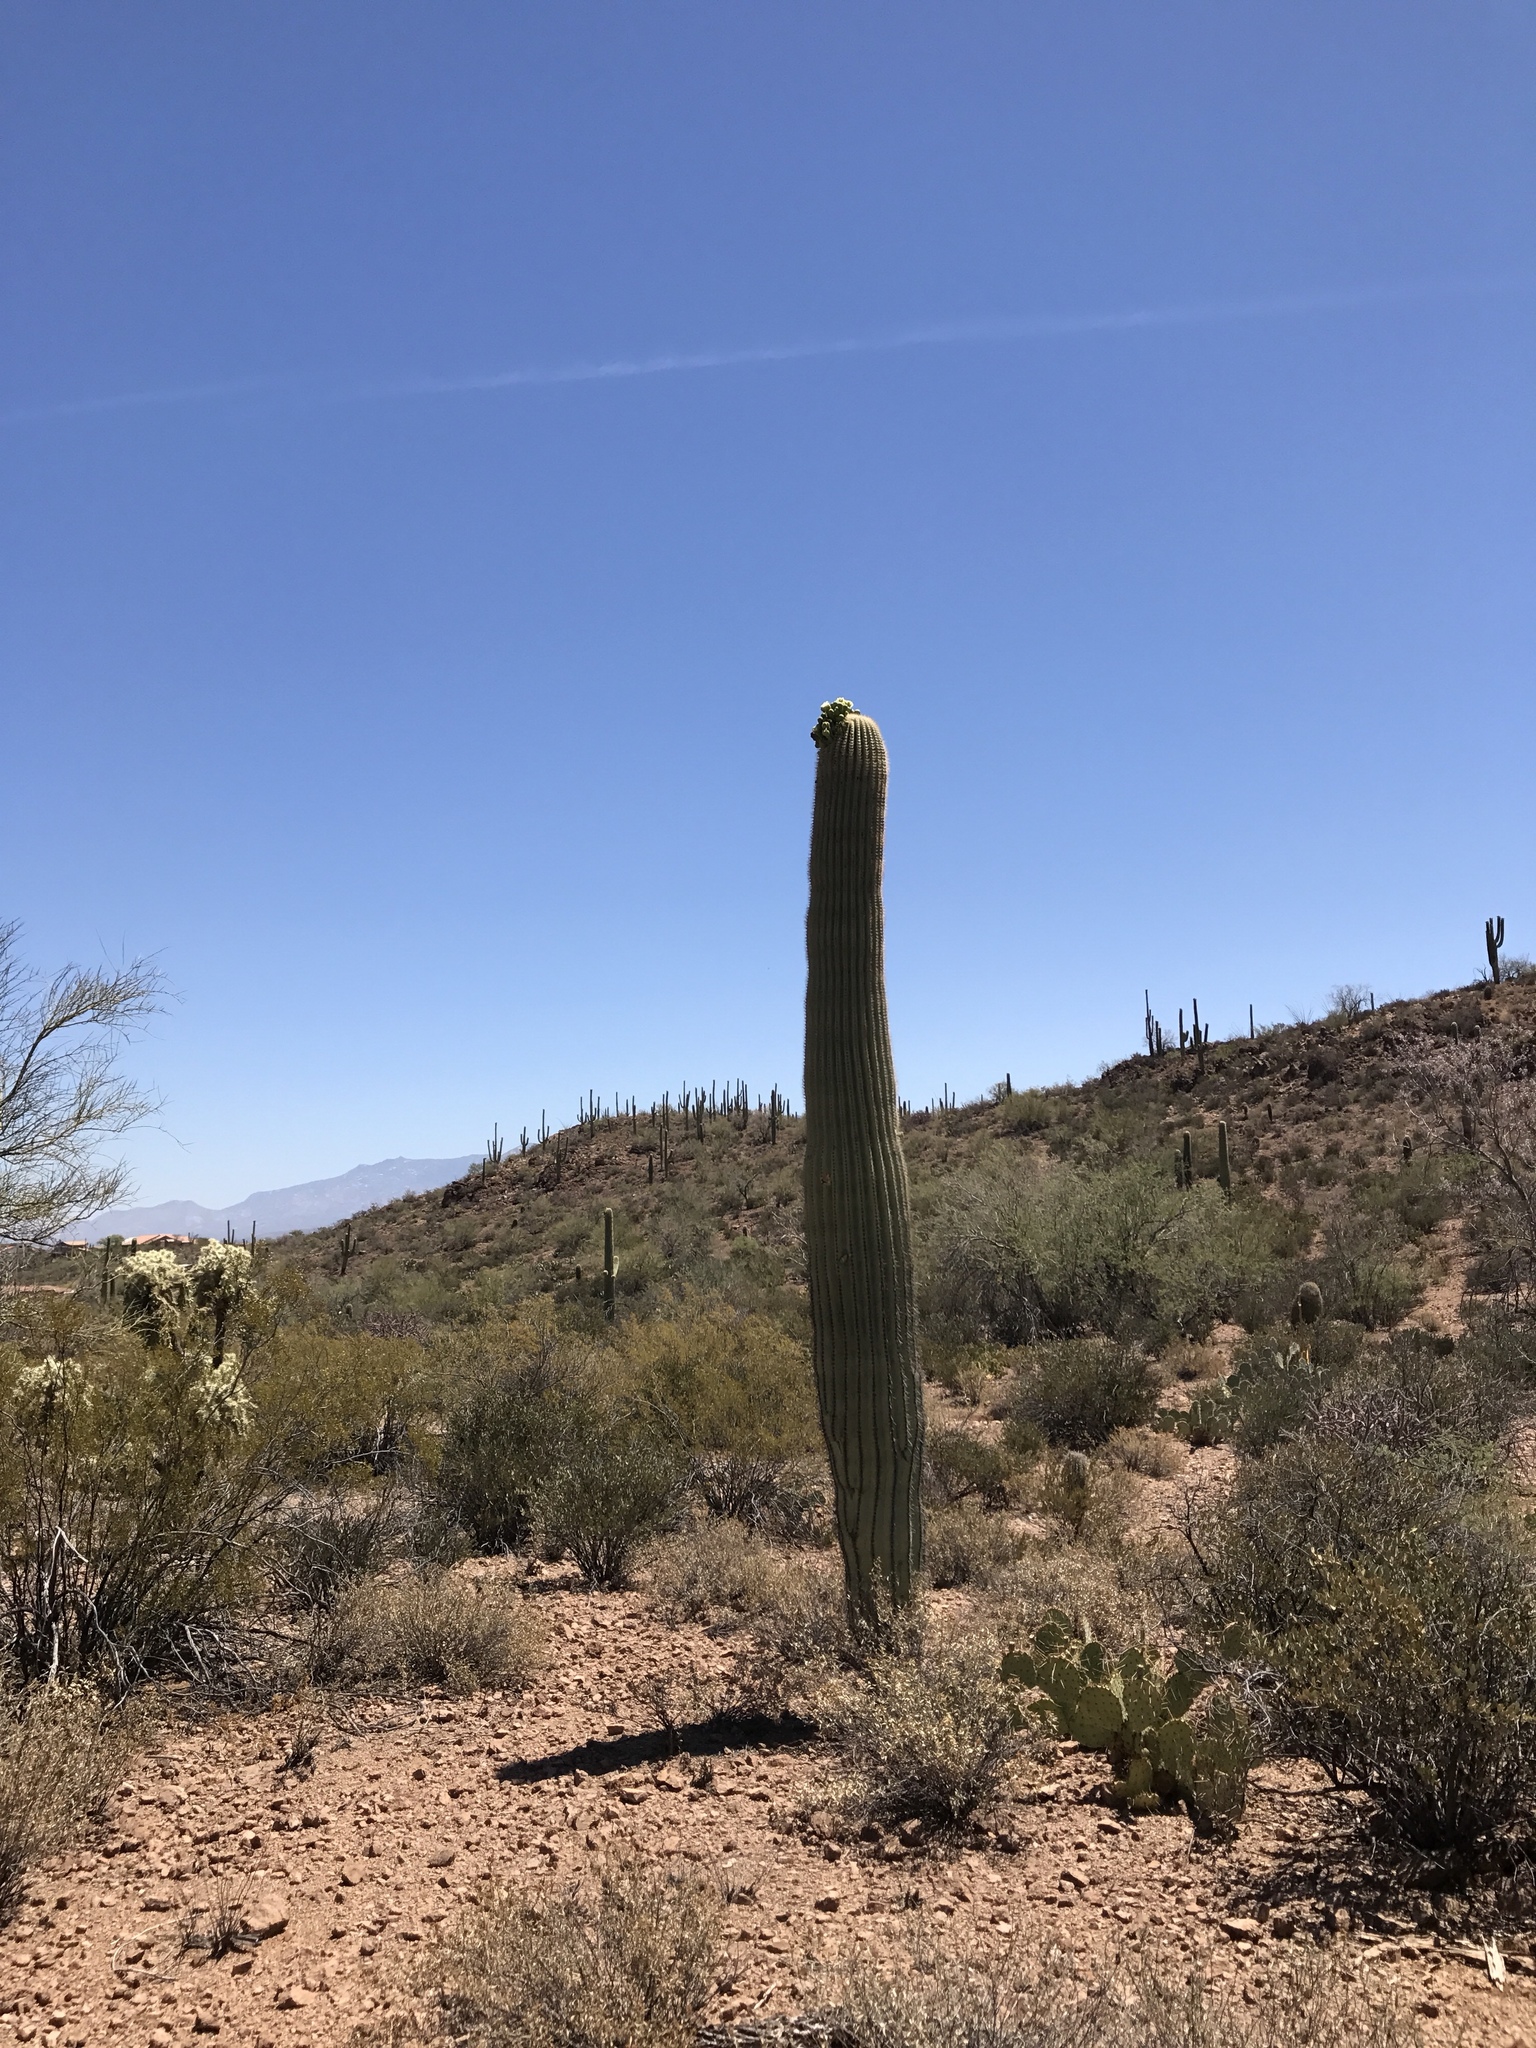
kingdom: Plantae
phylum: Tracheophyta
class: Magnoliopsida
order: Caryophyllales
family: Cactaceae
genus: Carnegiea
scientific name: Carnegiea gigantea
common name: Saguaro
